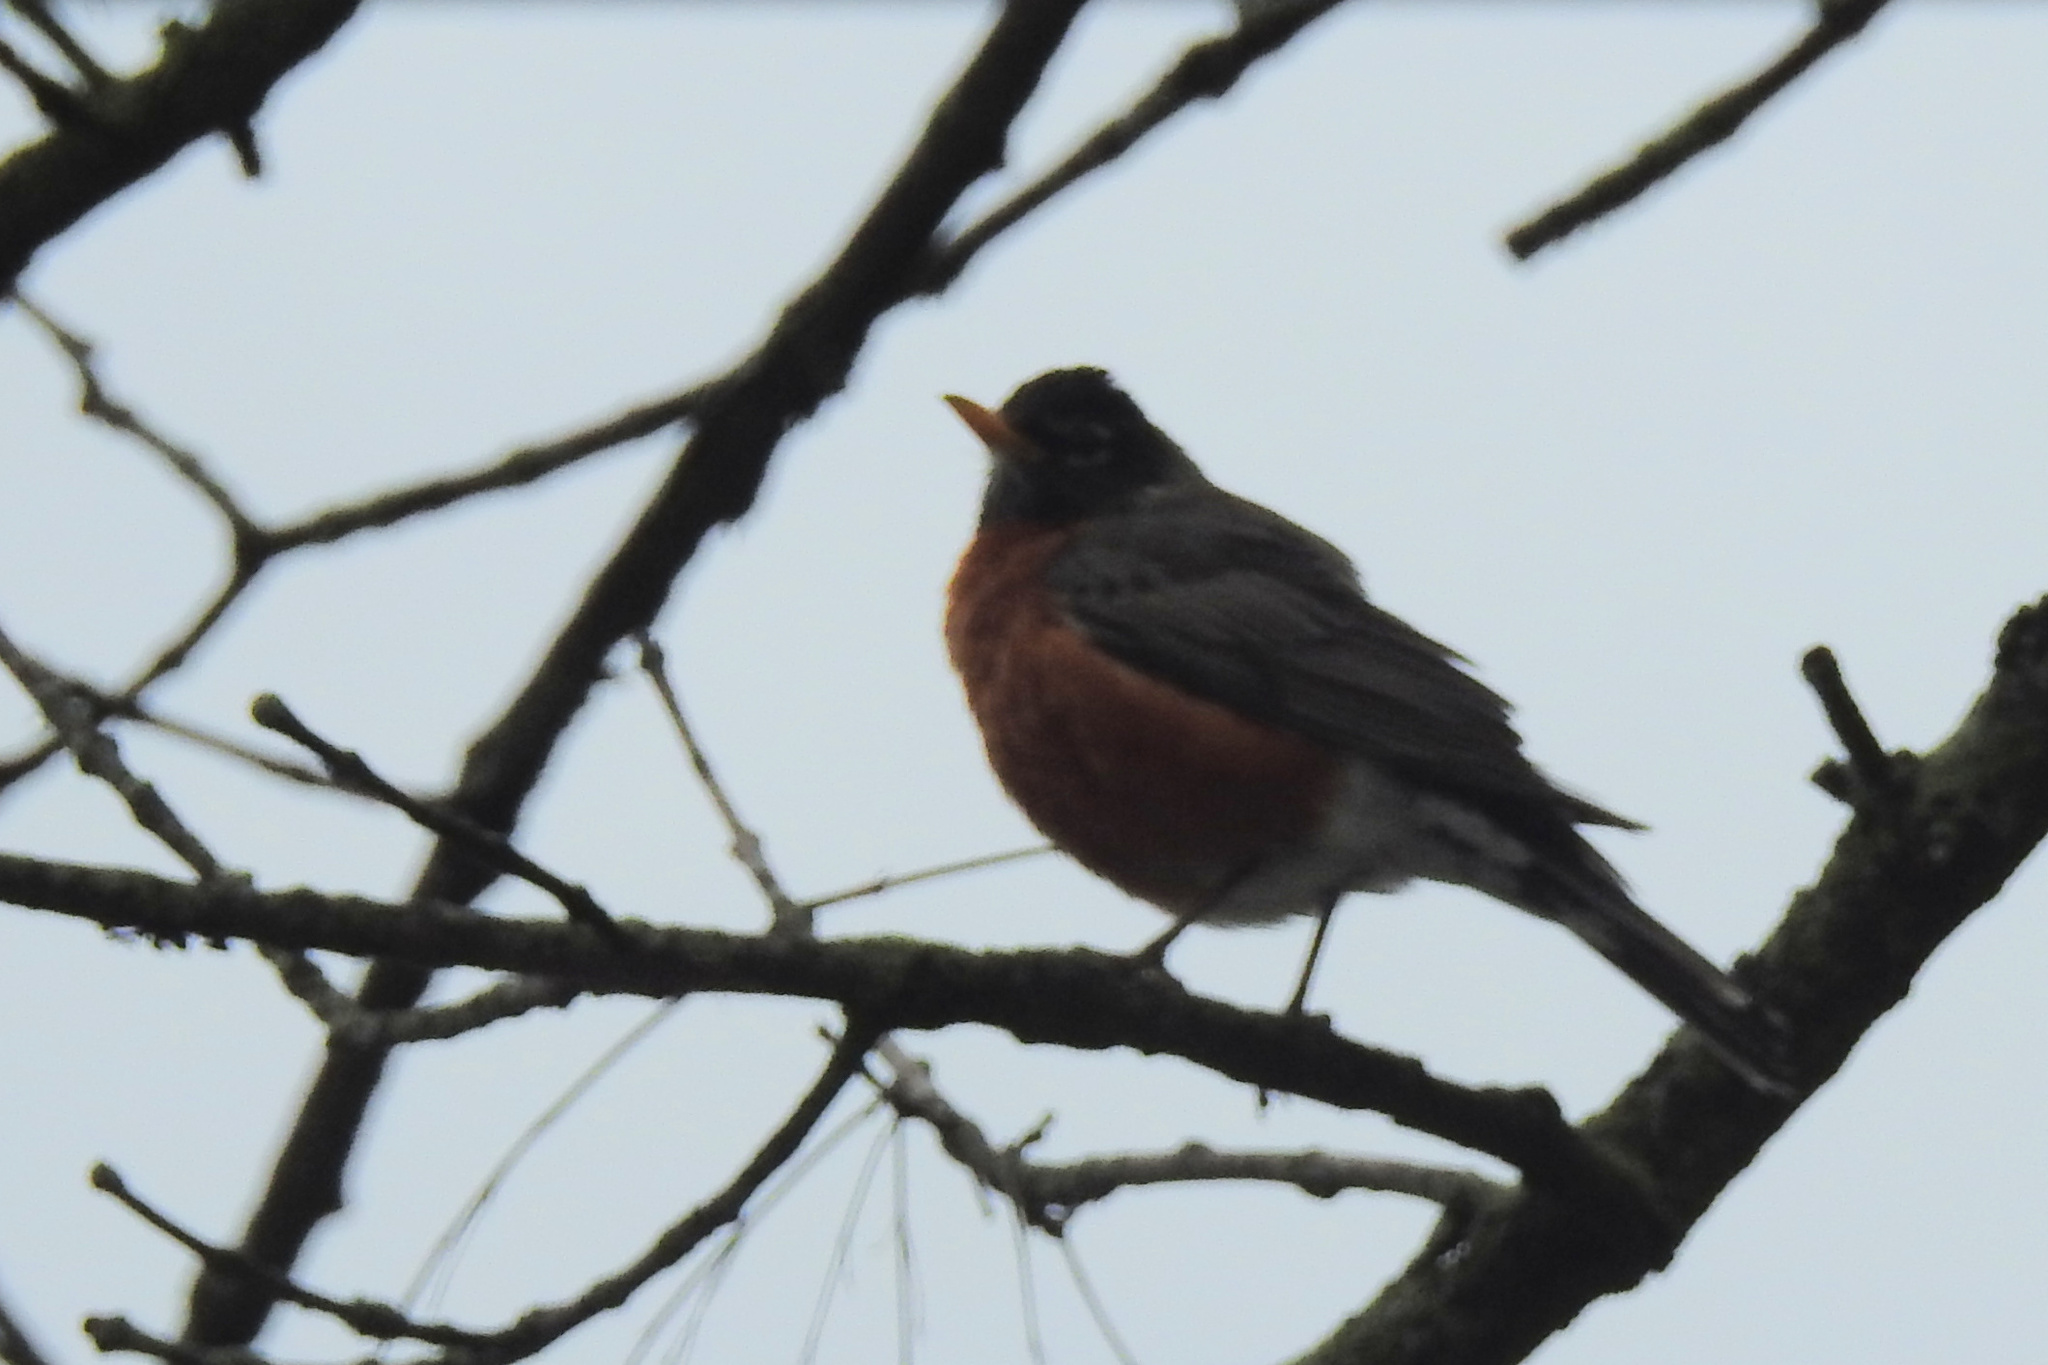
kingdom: Animalia
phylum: Chordata
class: Aves
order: Passeriformes
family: Turdidae
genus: Turdus
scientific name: Turdus migratorius
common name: American robin
